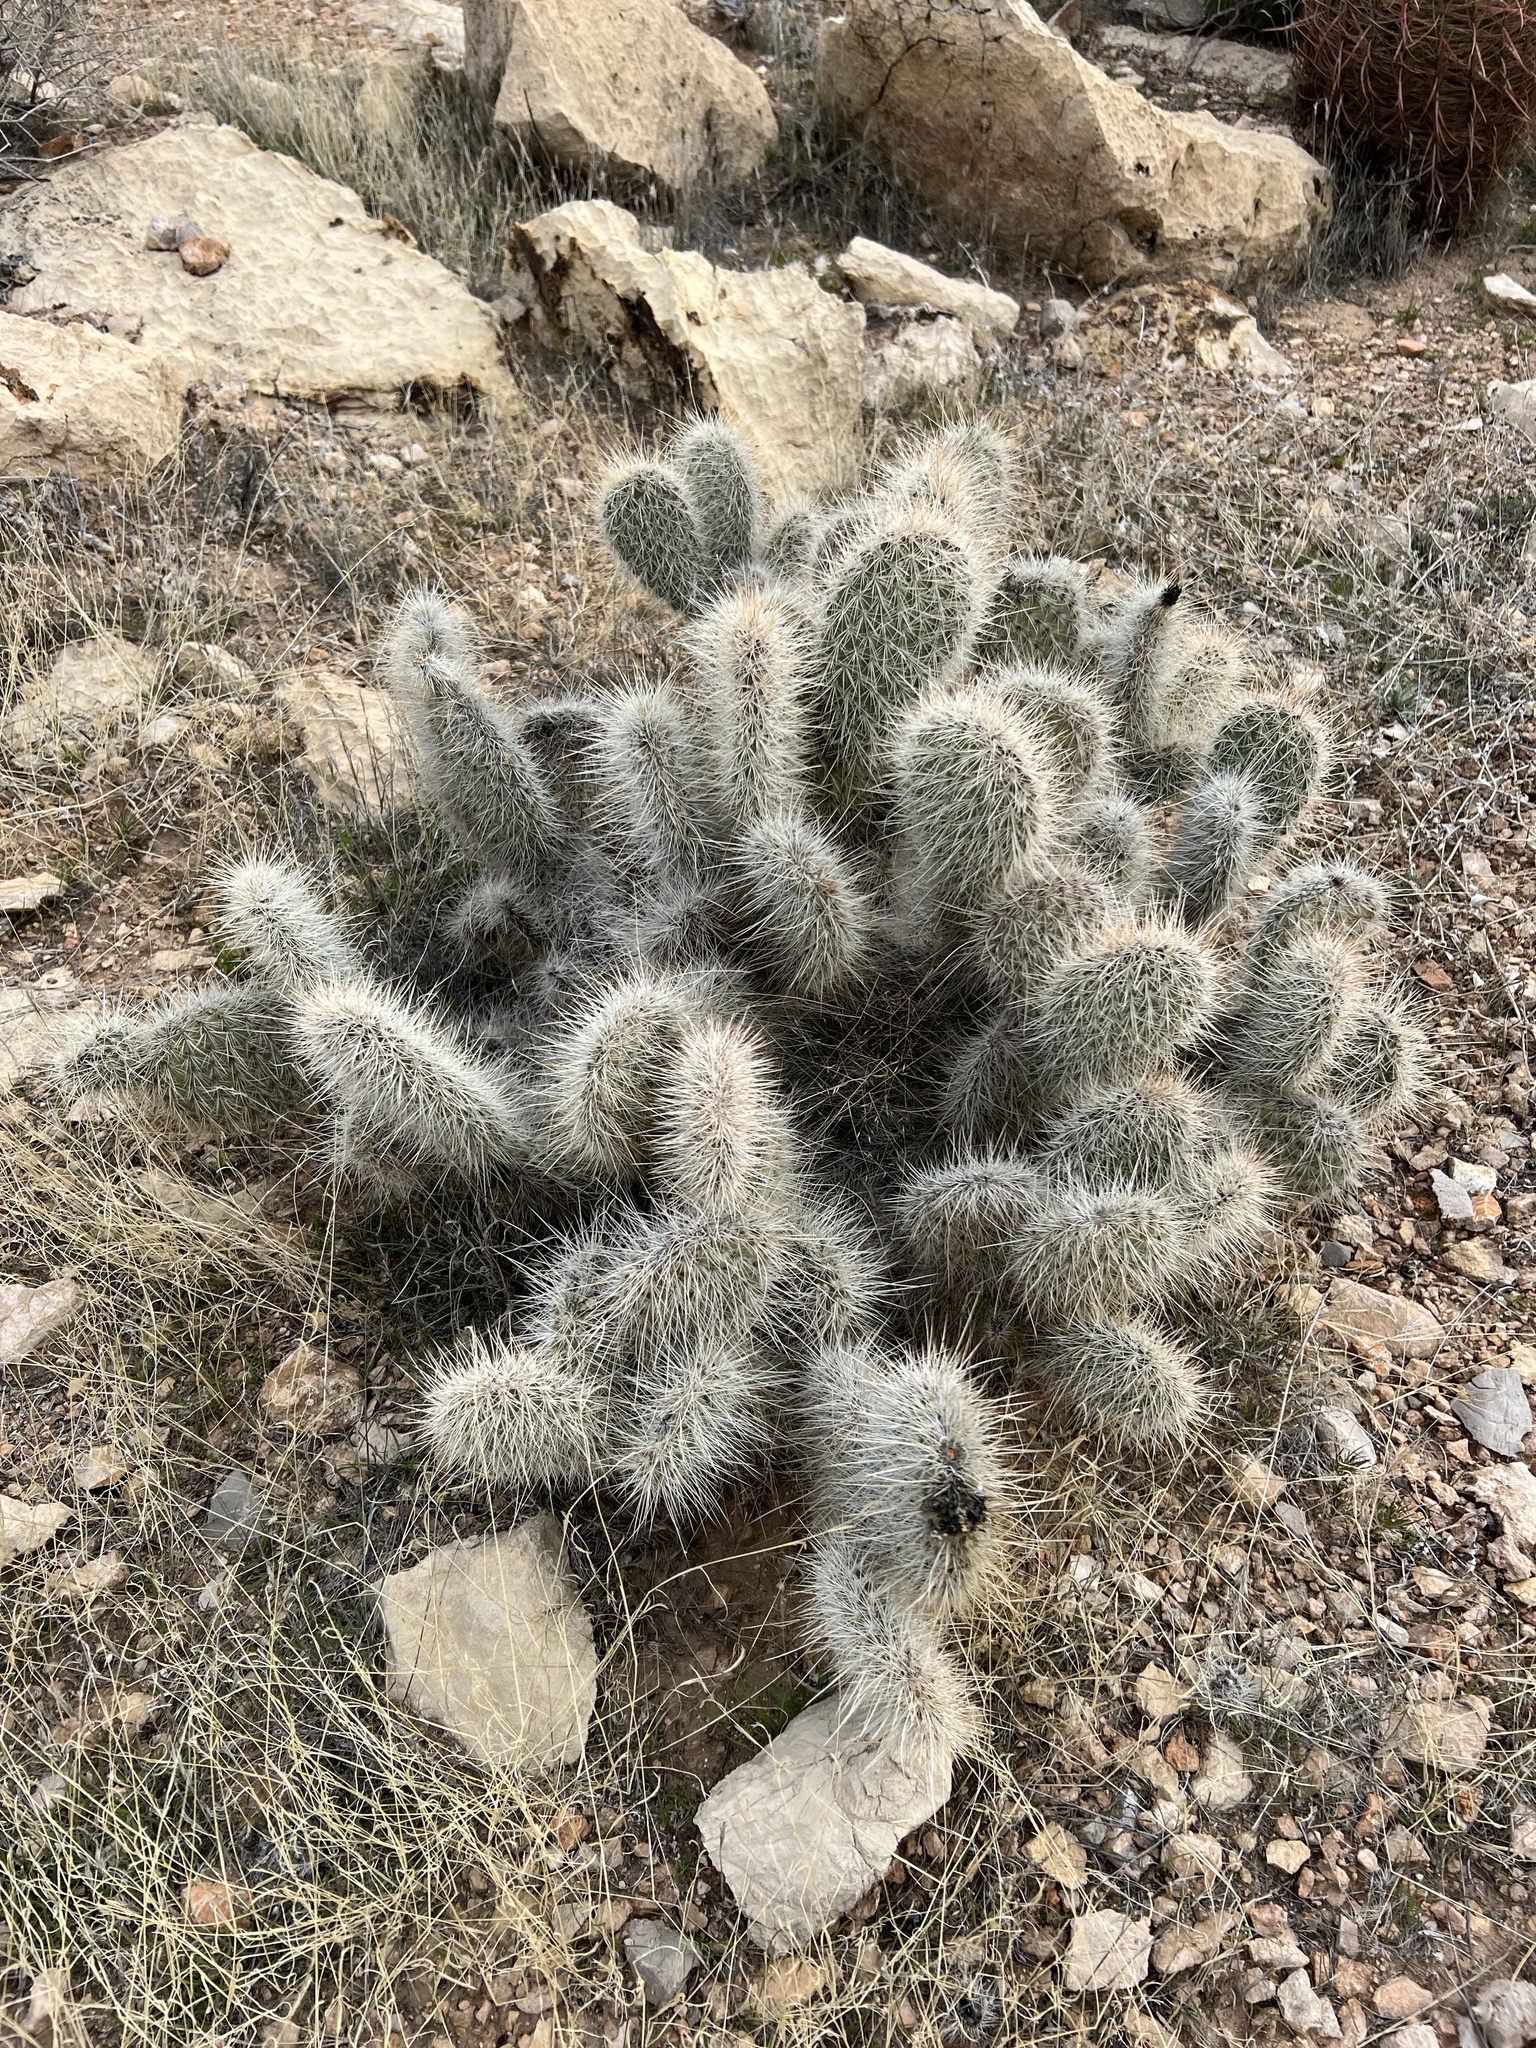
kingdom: Plantae
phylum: Tracheophyta
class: Magnoliopsida
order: Caryophyllales
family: Cactaceae
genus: Opuntia
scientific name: Opuntia polyacantha
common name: Plains prickly-pear
